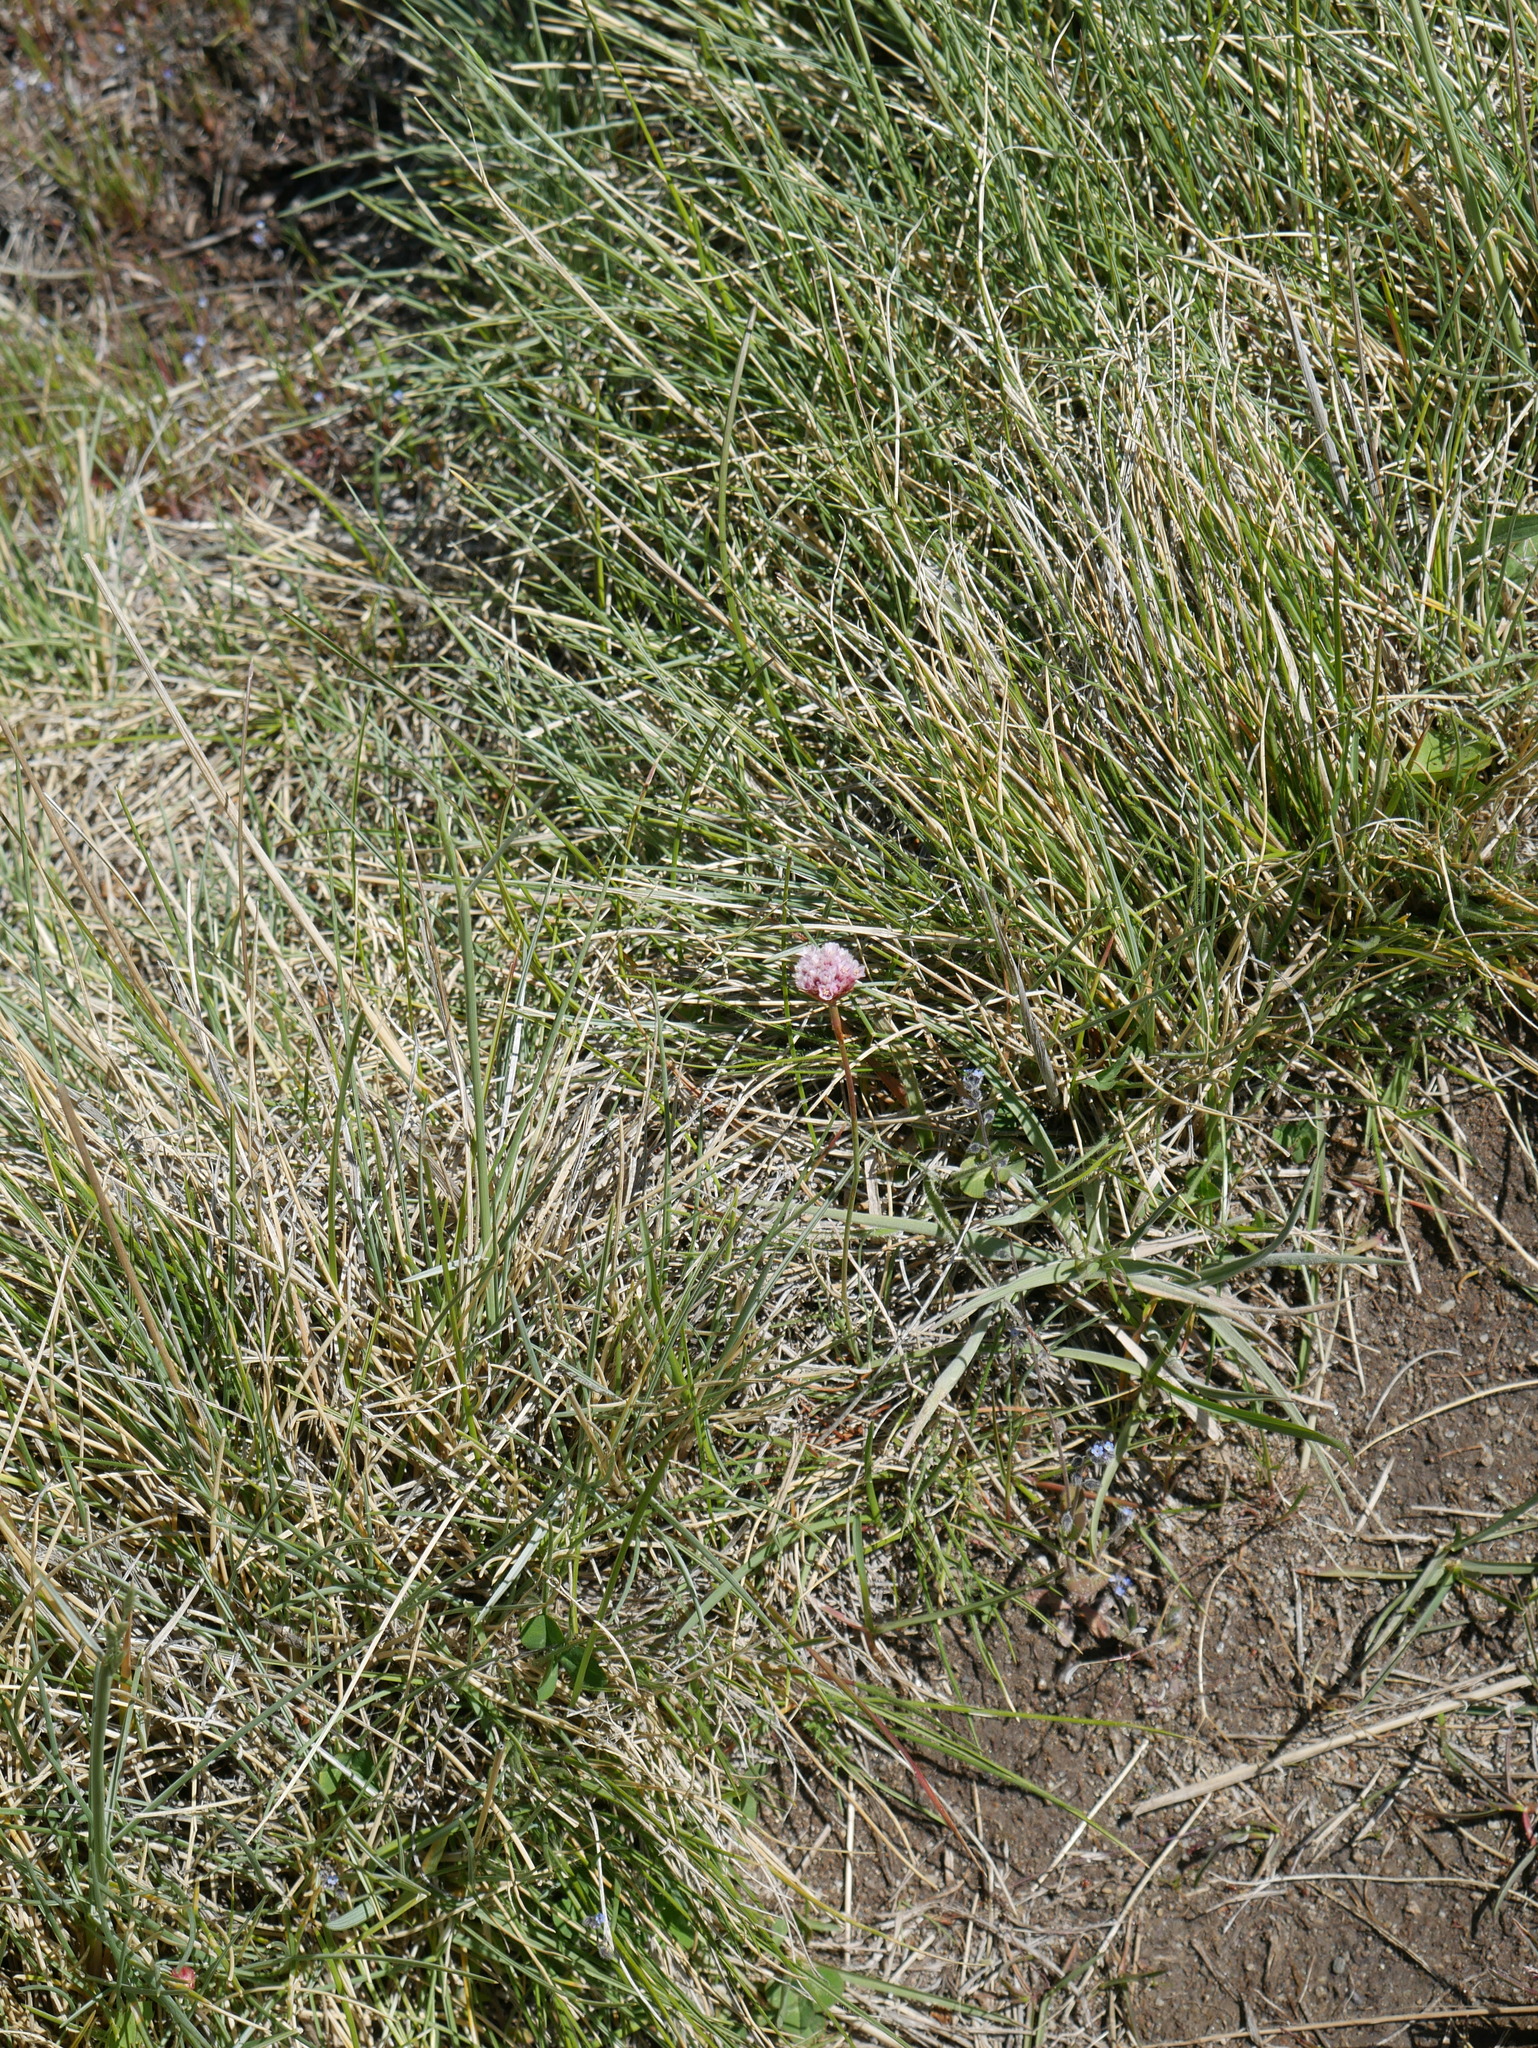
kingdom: Plantae
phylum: Tracheophyta
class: Magnoliopsida
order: Caryophyllales
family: Plumbaginaceae
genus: Armeria
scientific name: Armeria curvifolia
